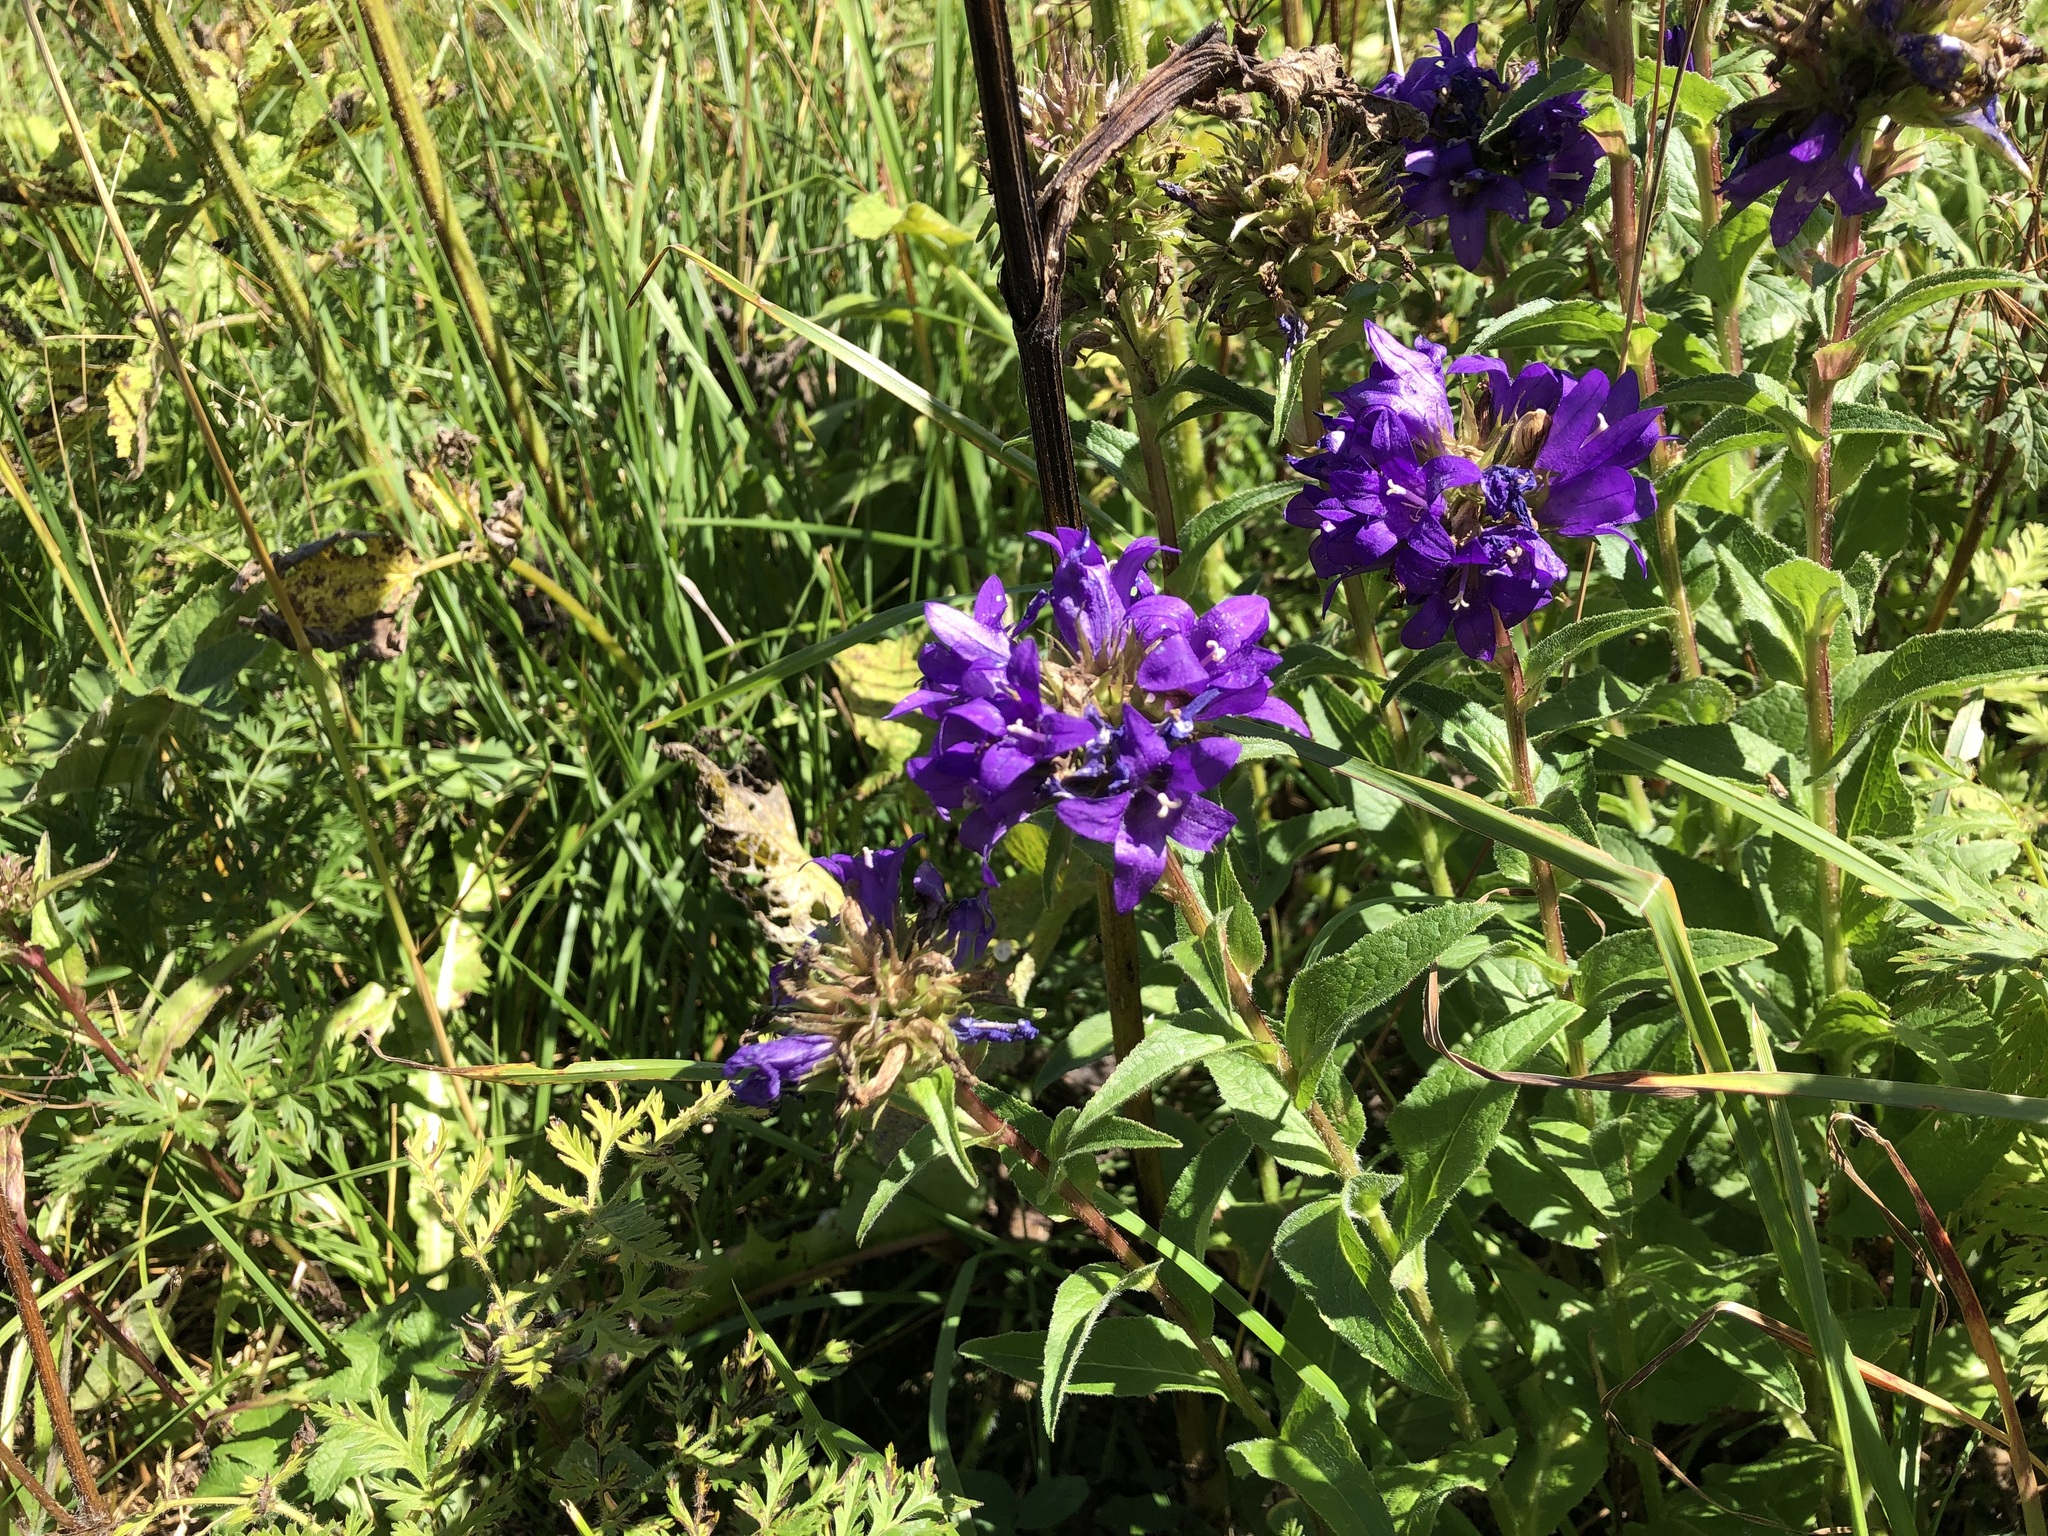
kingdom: Plantae
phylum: Tracheophyta
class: Magnoliopsida
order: Asterales
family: Campanulaceae
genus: Campanula
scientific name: Campanula glomerata
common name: Clustered bellflower
